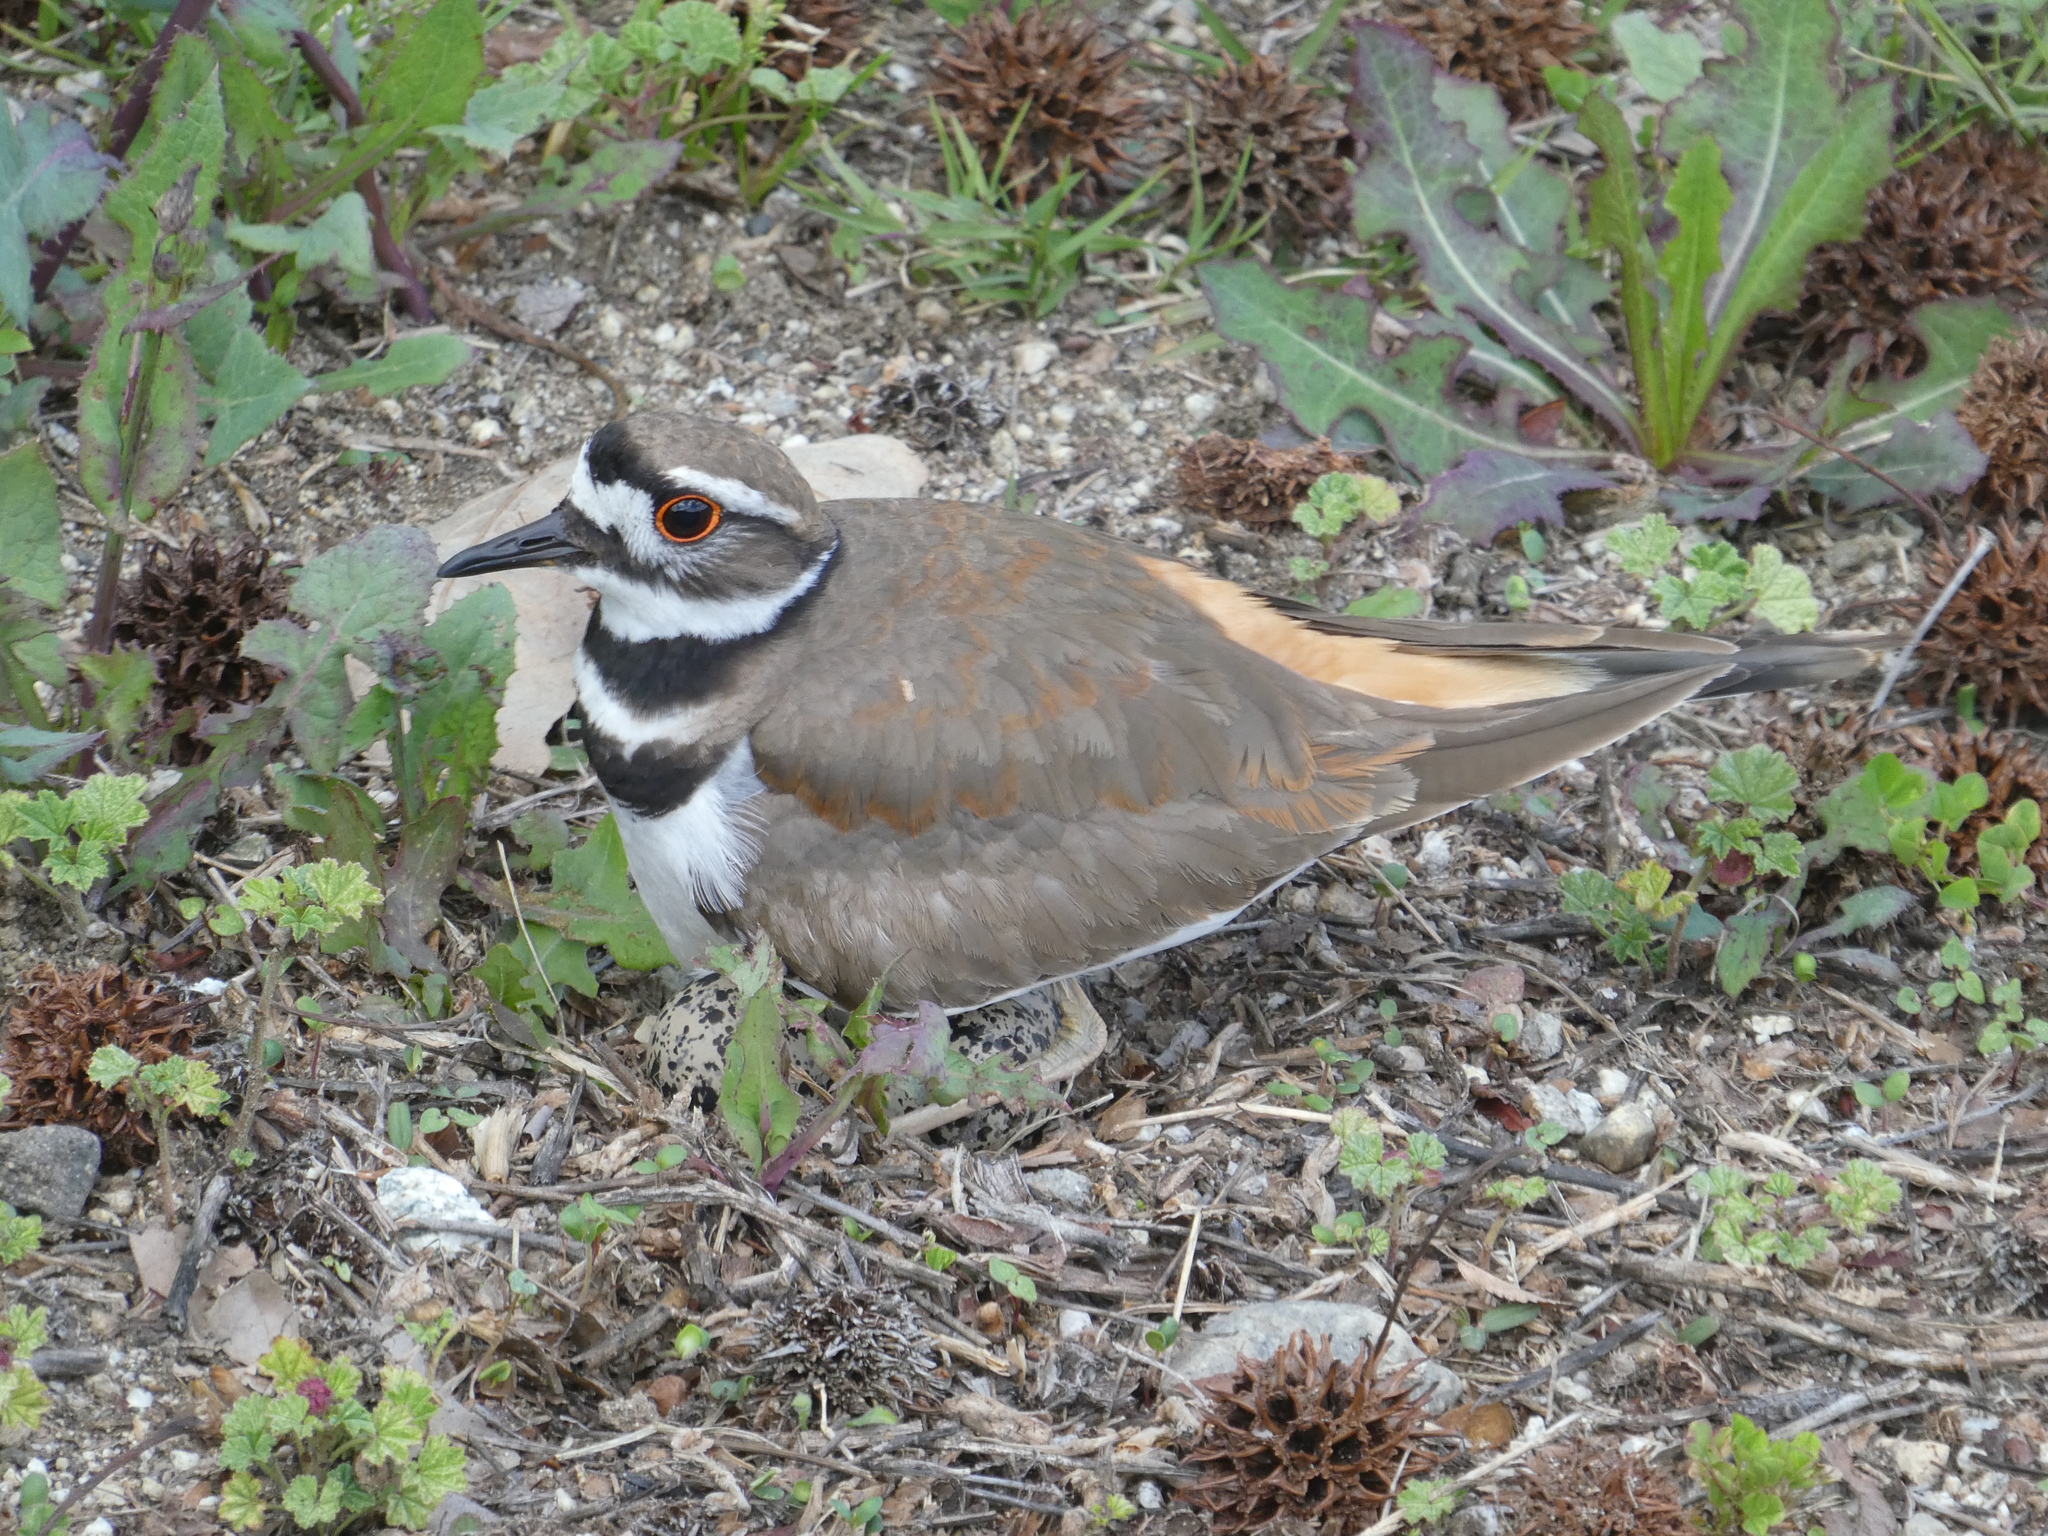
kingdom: Animalia
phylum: Chordata
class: Aves
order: Charadriiformes
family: Charadriidae
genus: Charadrius
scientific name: Charadrius vociferus
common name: Killdeer
